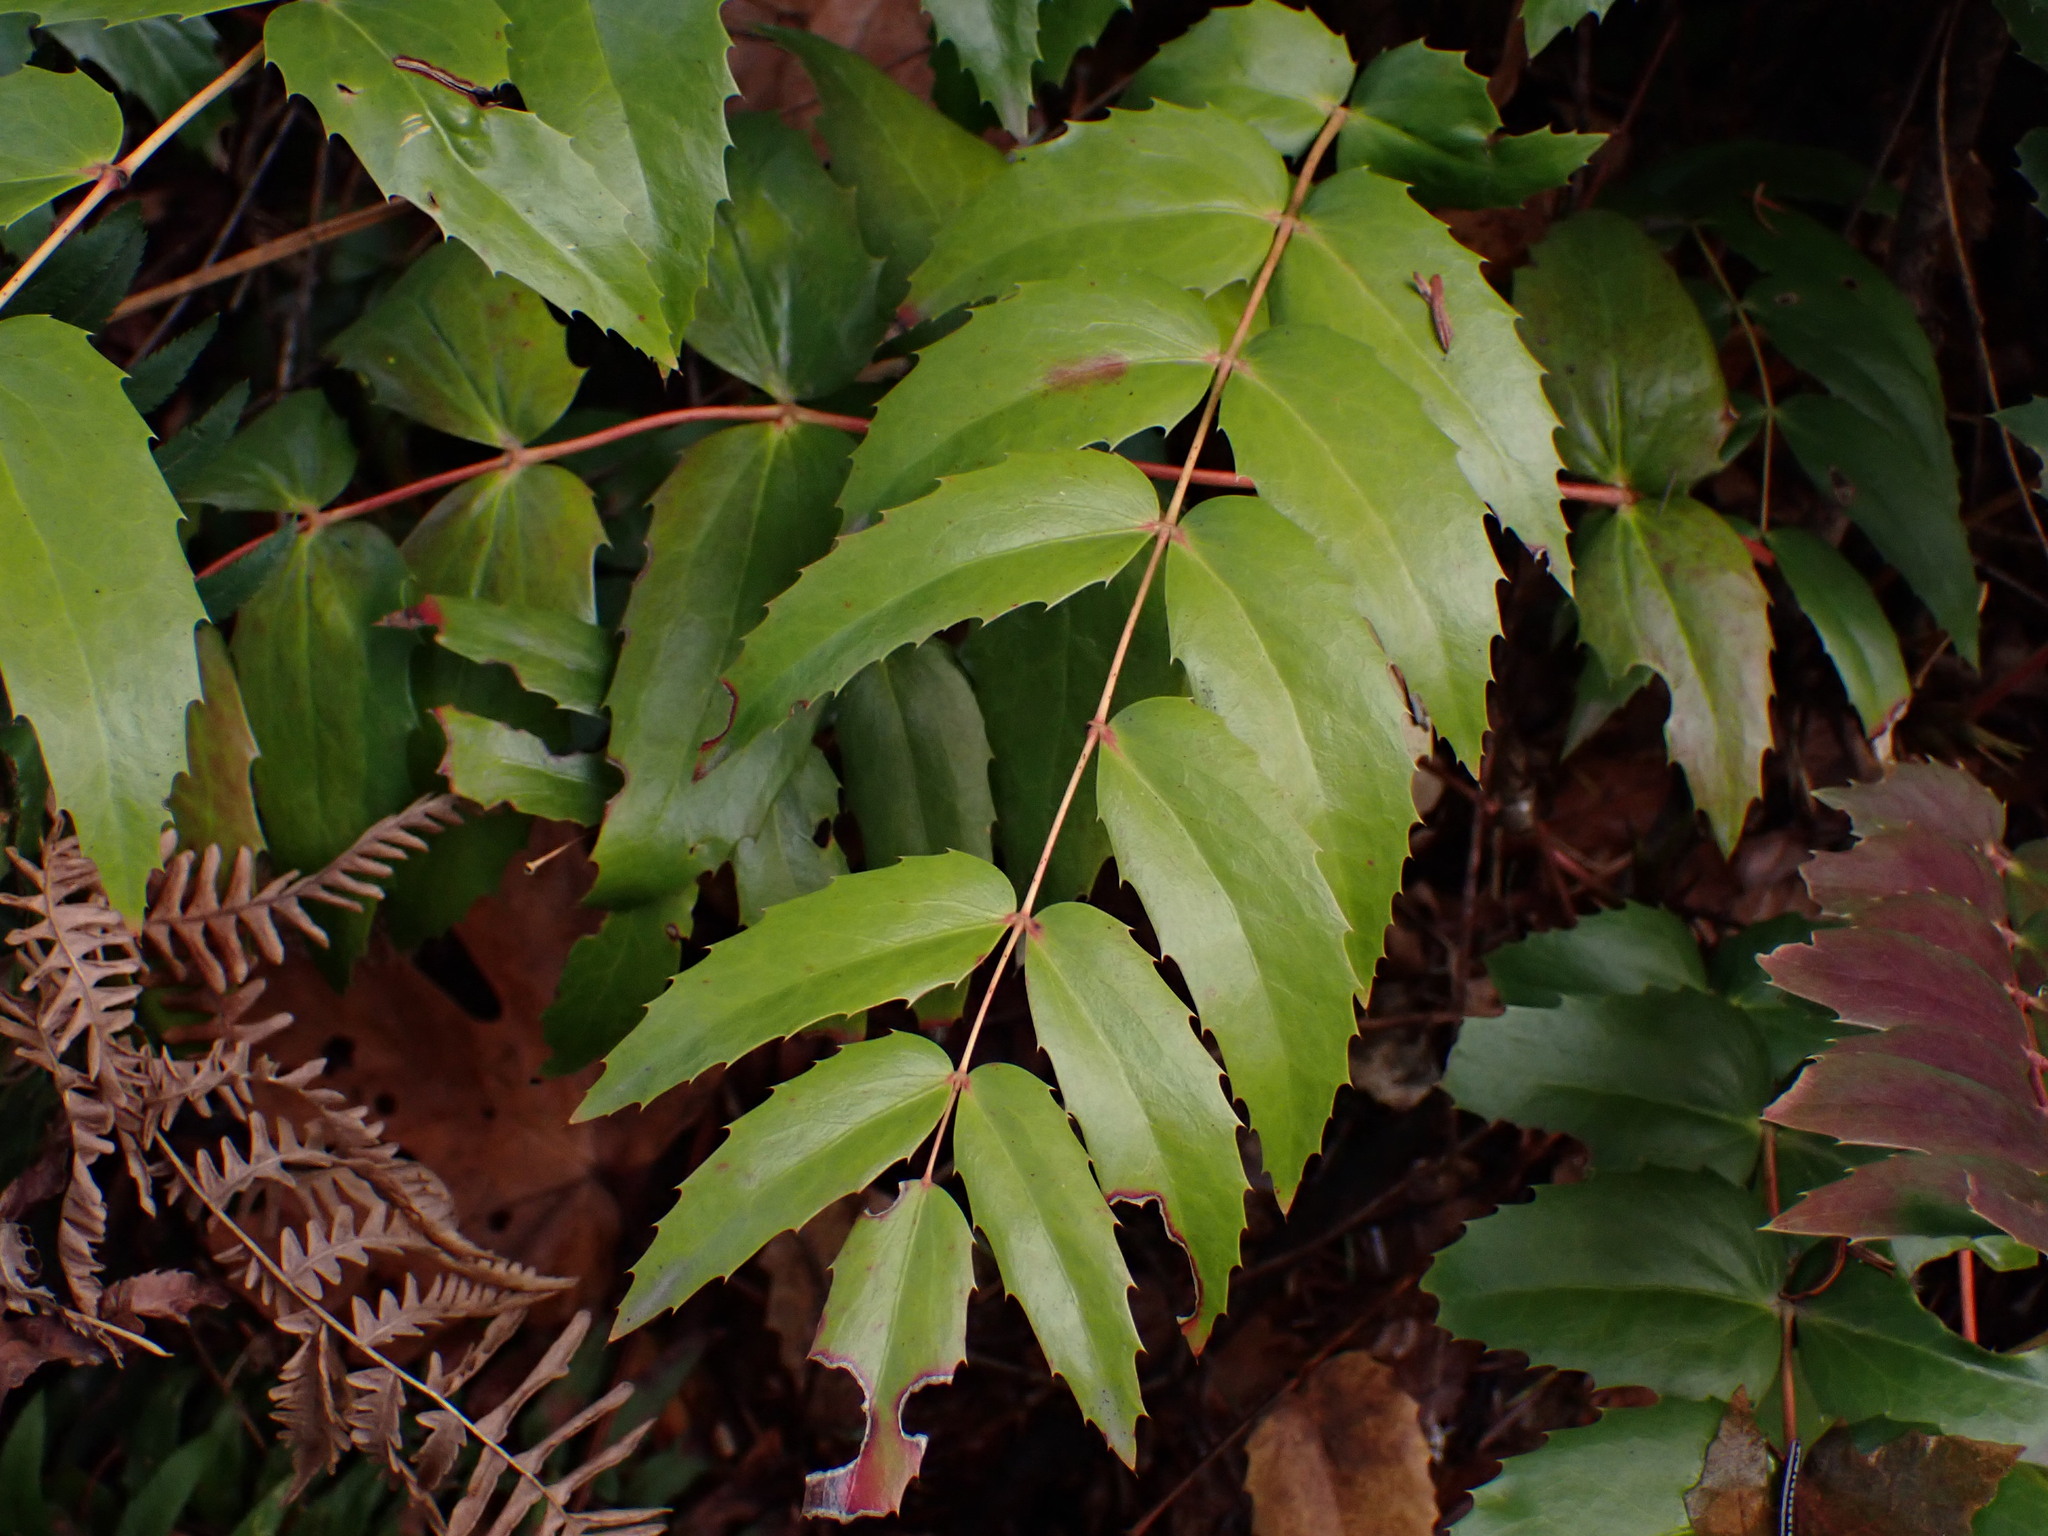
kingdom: Plantae
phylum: Tracheophyta
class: Magnoliopsida
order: Ranunculales
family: Berberidaceae
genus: Mahonia
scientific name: Mahonia nervosa
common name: Cascade oregon-grape
